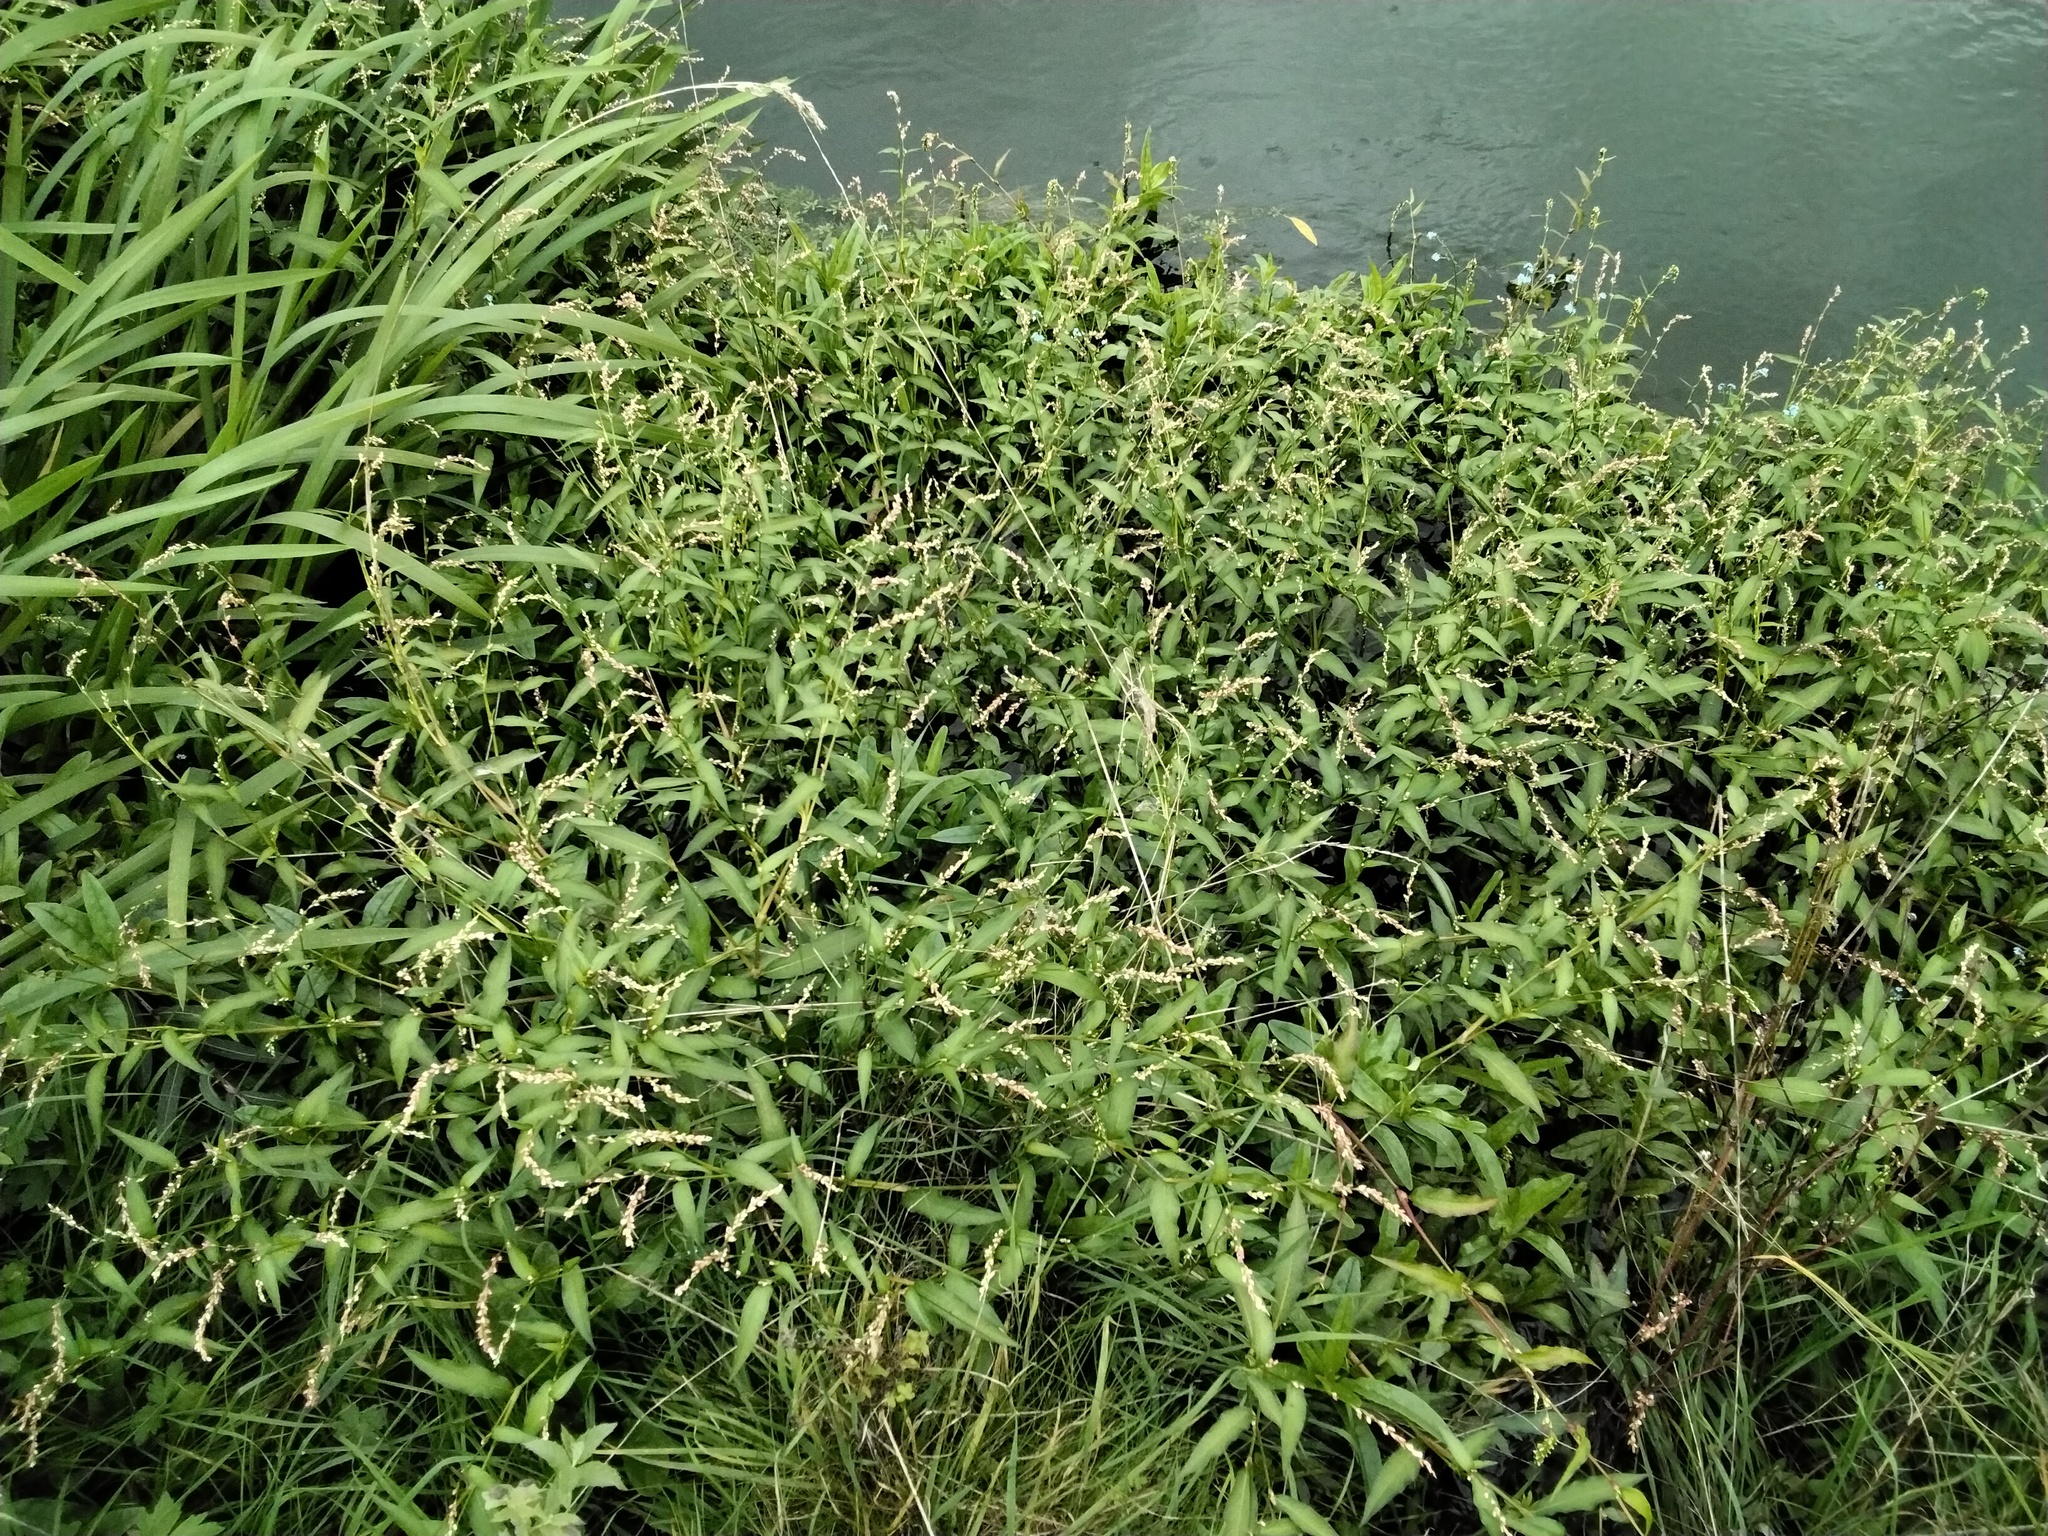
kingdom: Plantae
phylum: Tracheophyta
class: Magnoliopsida
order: Caryophyllales
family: Polygonaceae
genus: Persicaria
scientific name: Persicaria hydropiper
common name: Water-pepper
